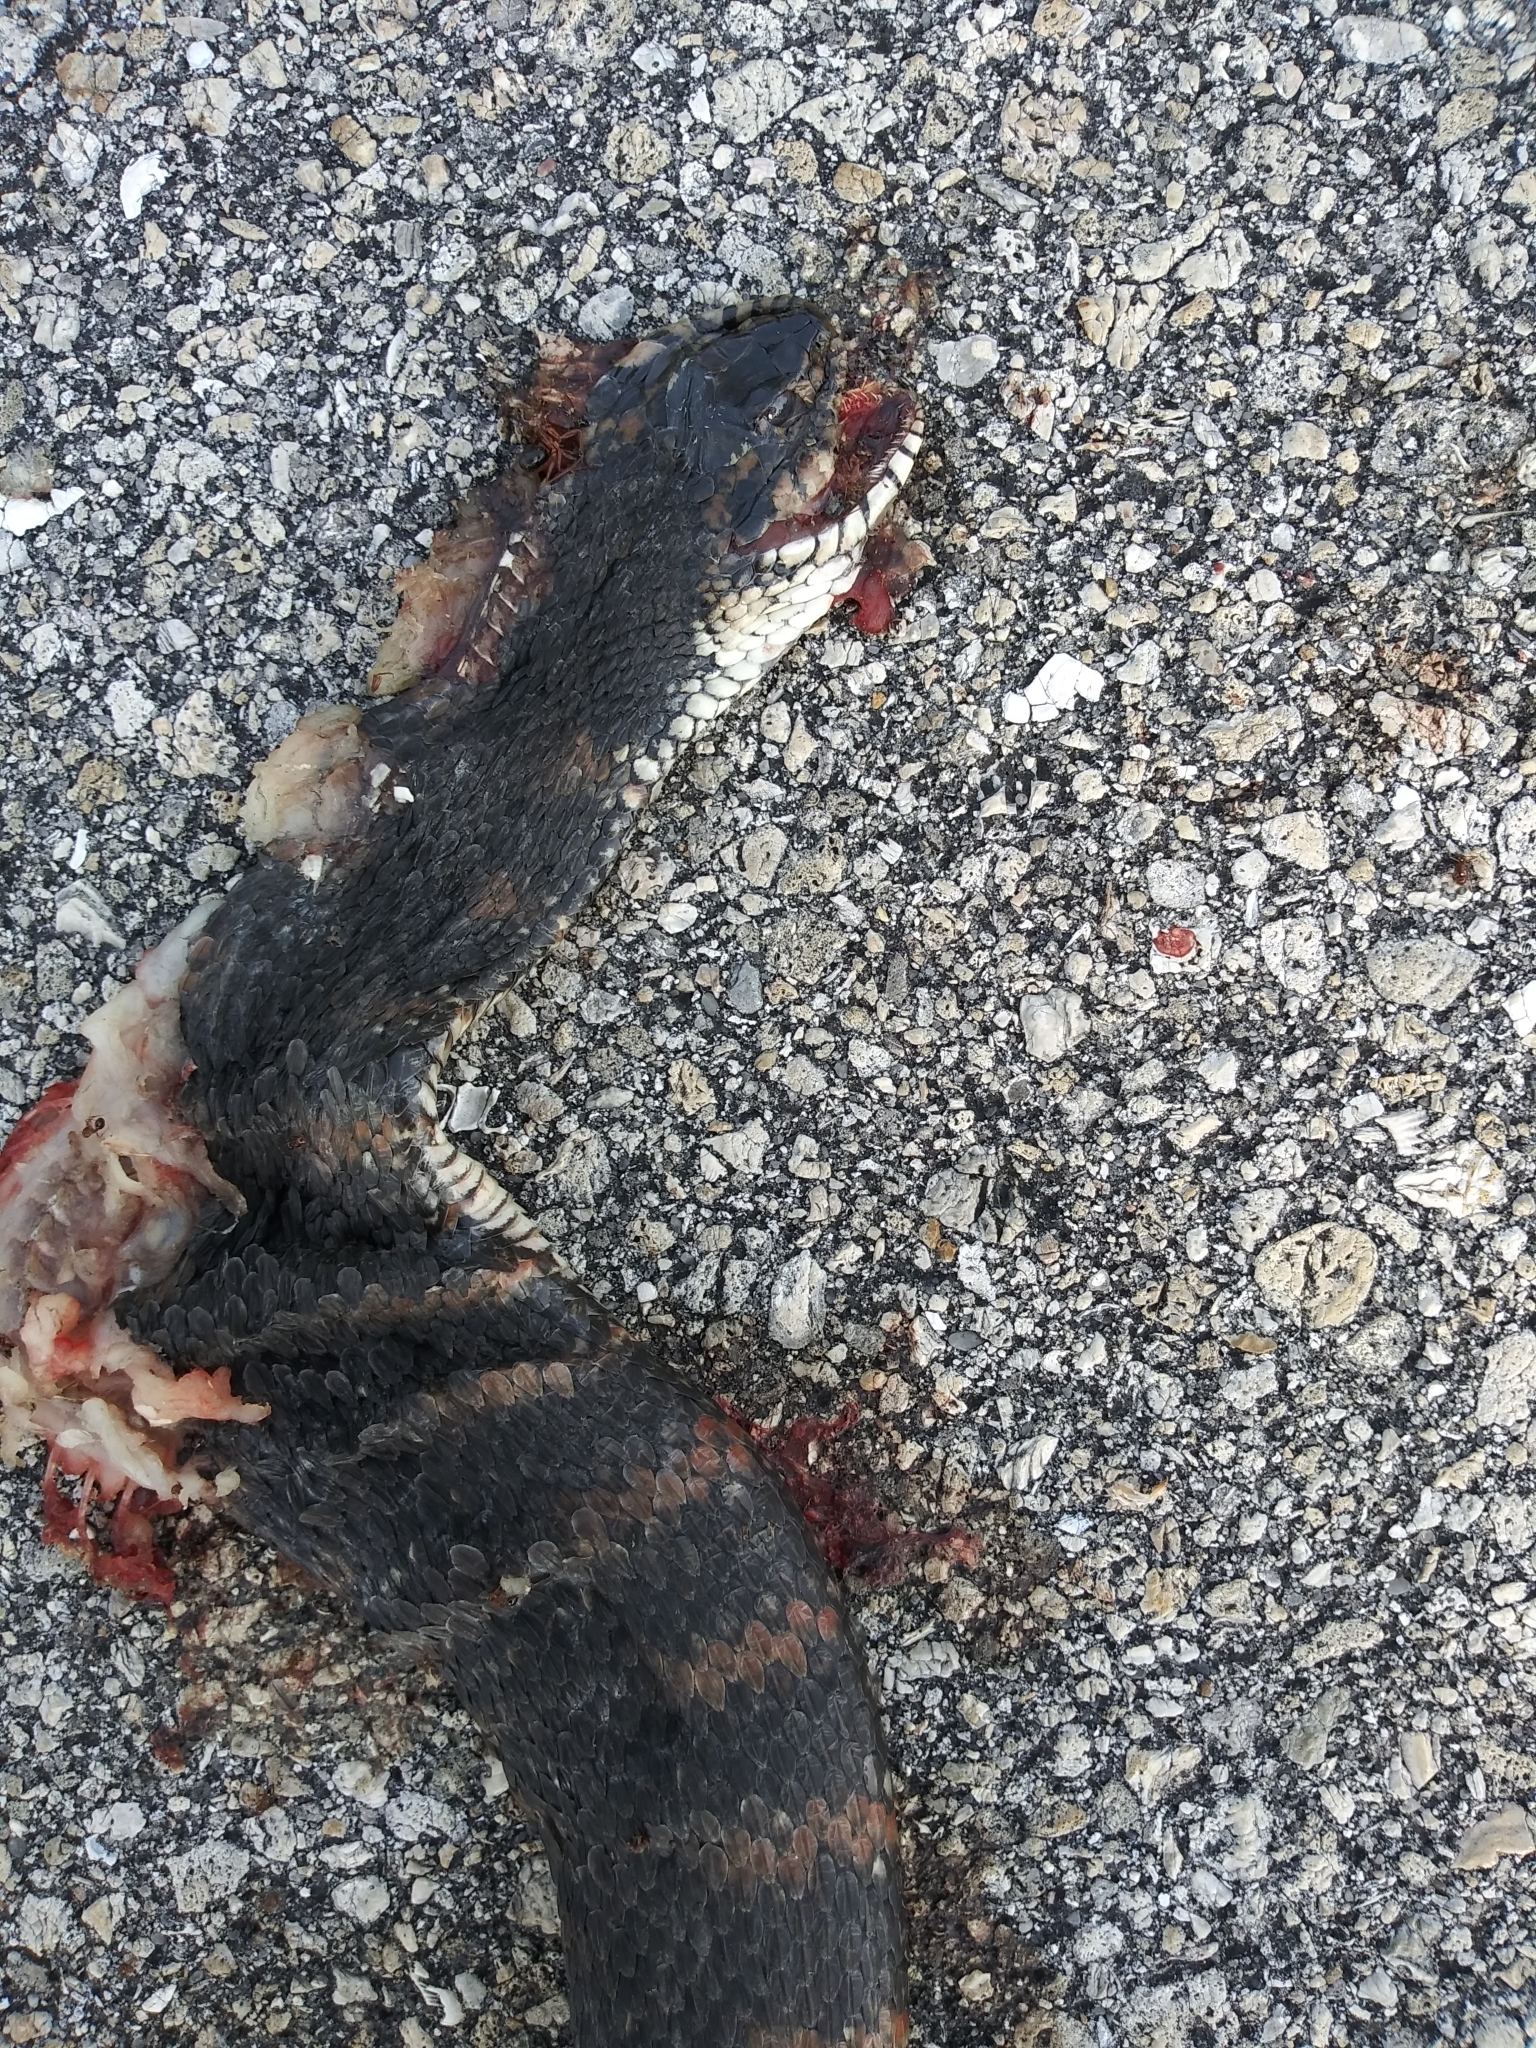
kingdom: Animalia
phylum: Chordata
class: Squamata
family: Colubridae
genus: Nerodia
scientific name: Nerodia fasciata
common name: Southern water snake
